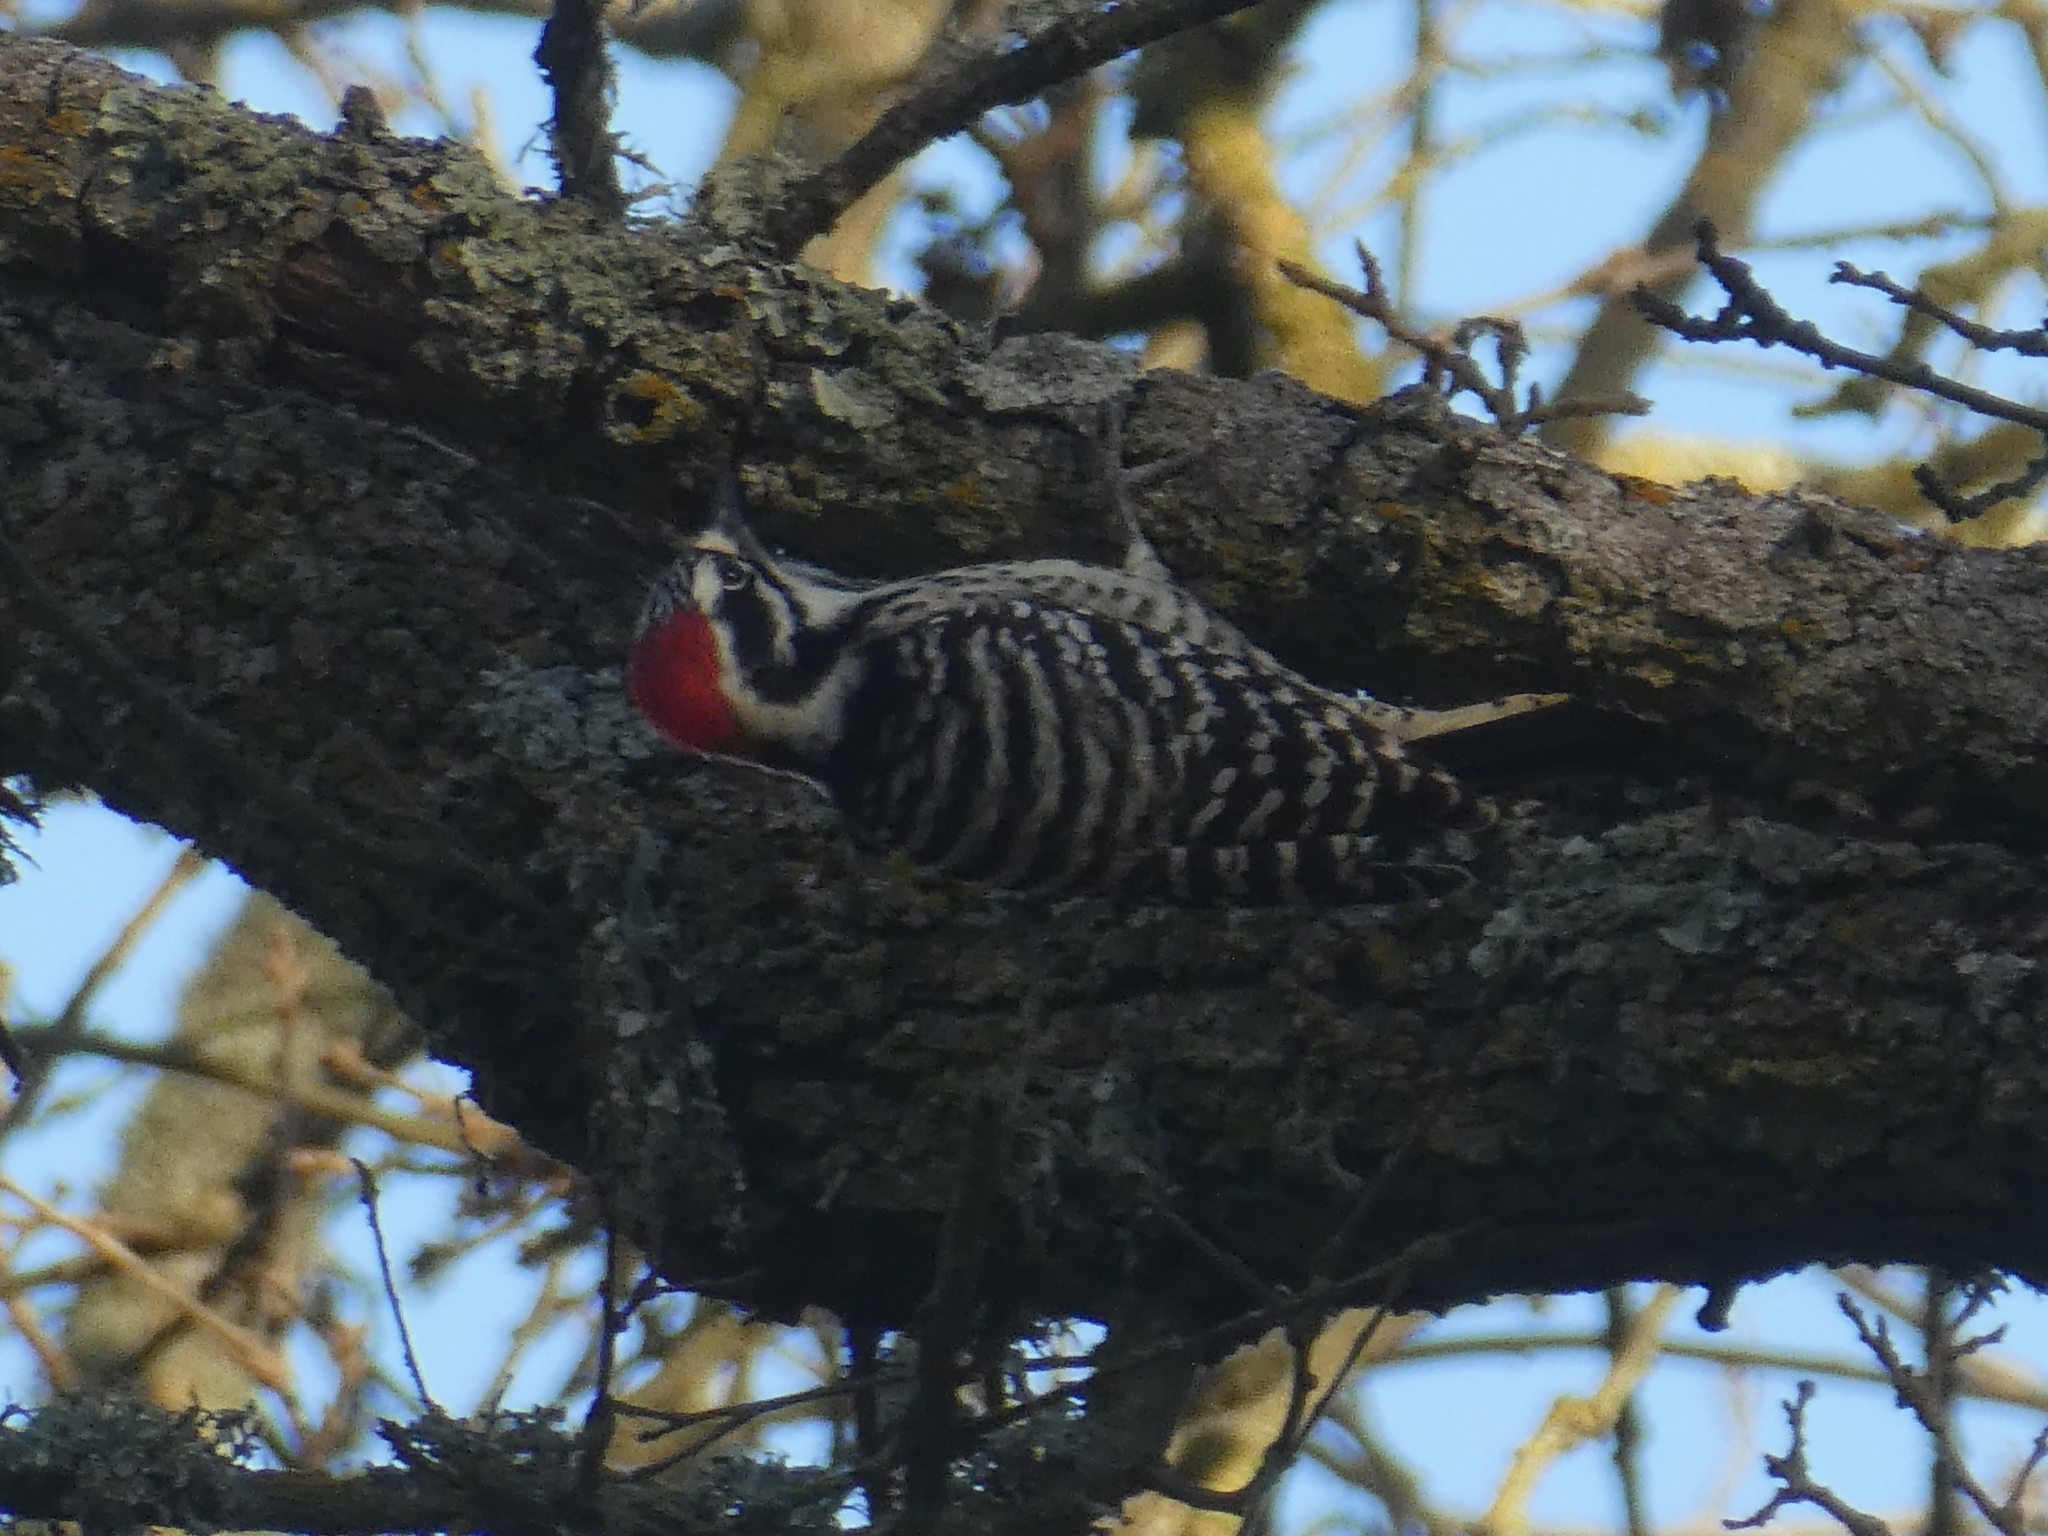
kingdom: Animalia
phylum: Chordata
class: Aves
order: Piciformes
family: Picidae
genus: Dryobates
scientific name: Dryobates nuttallii
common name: Nuttall's woodpecker
